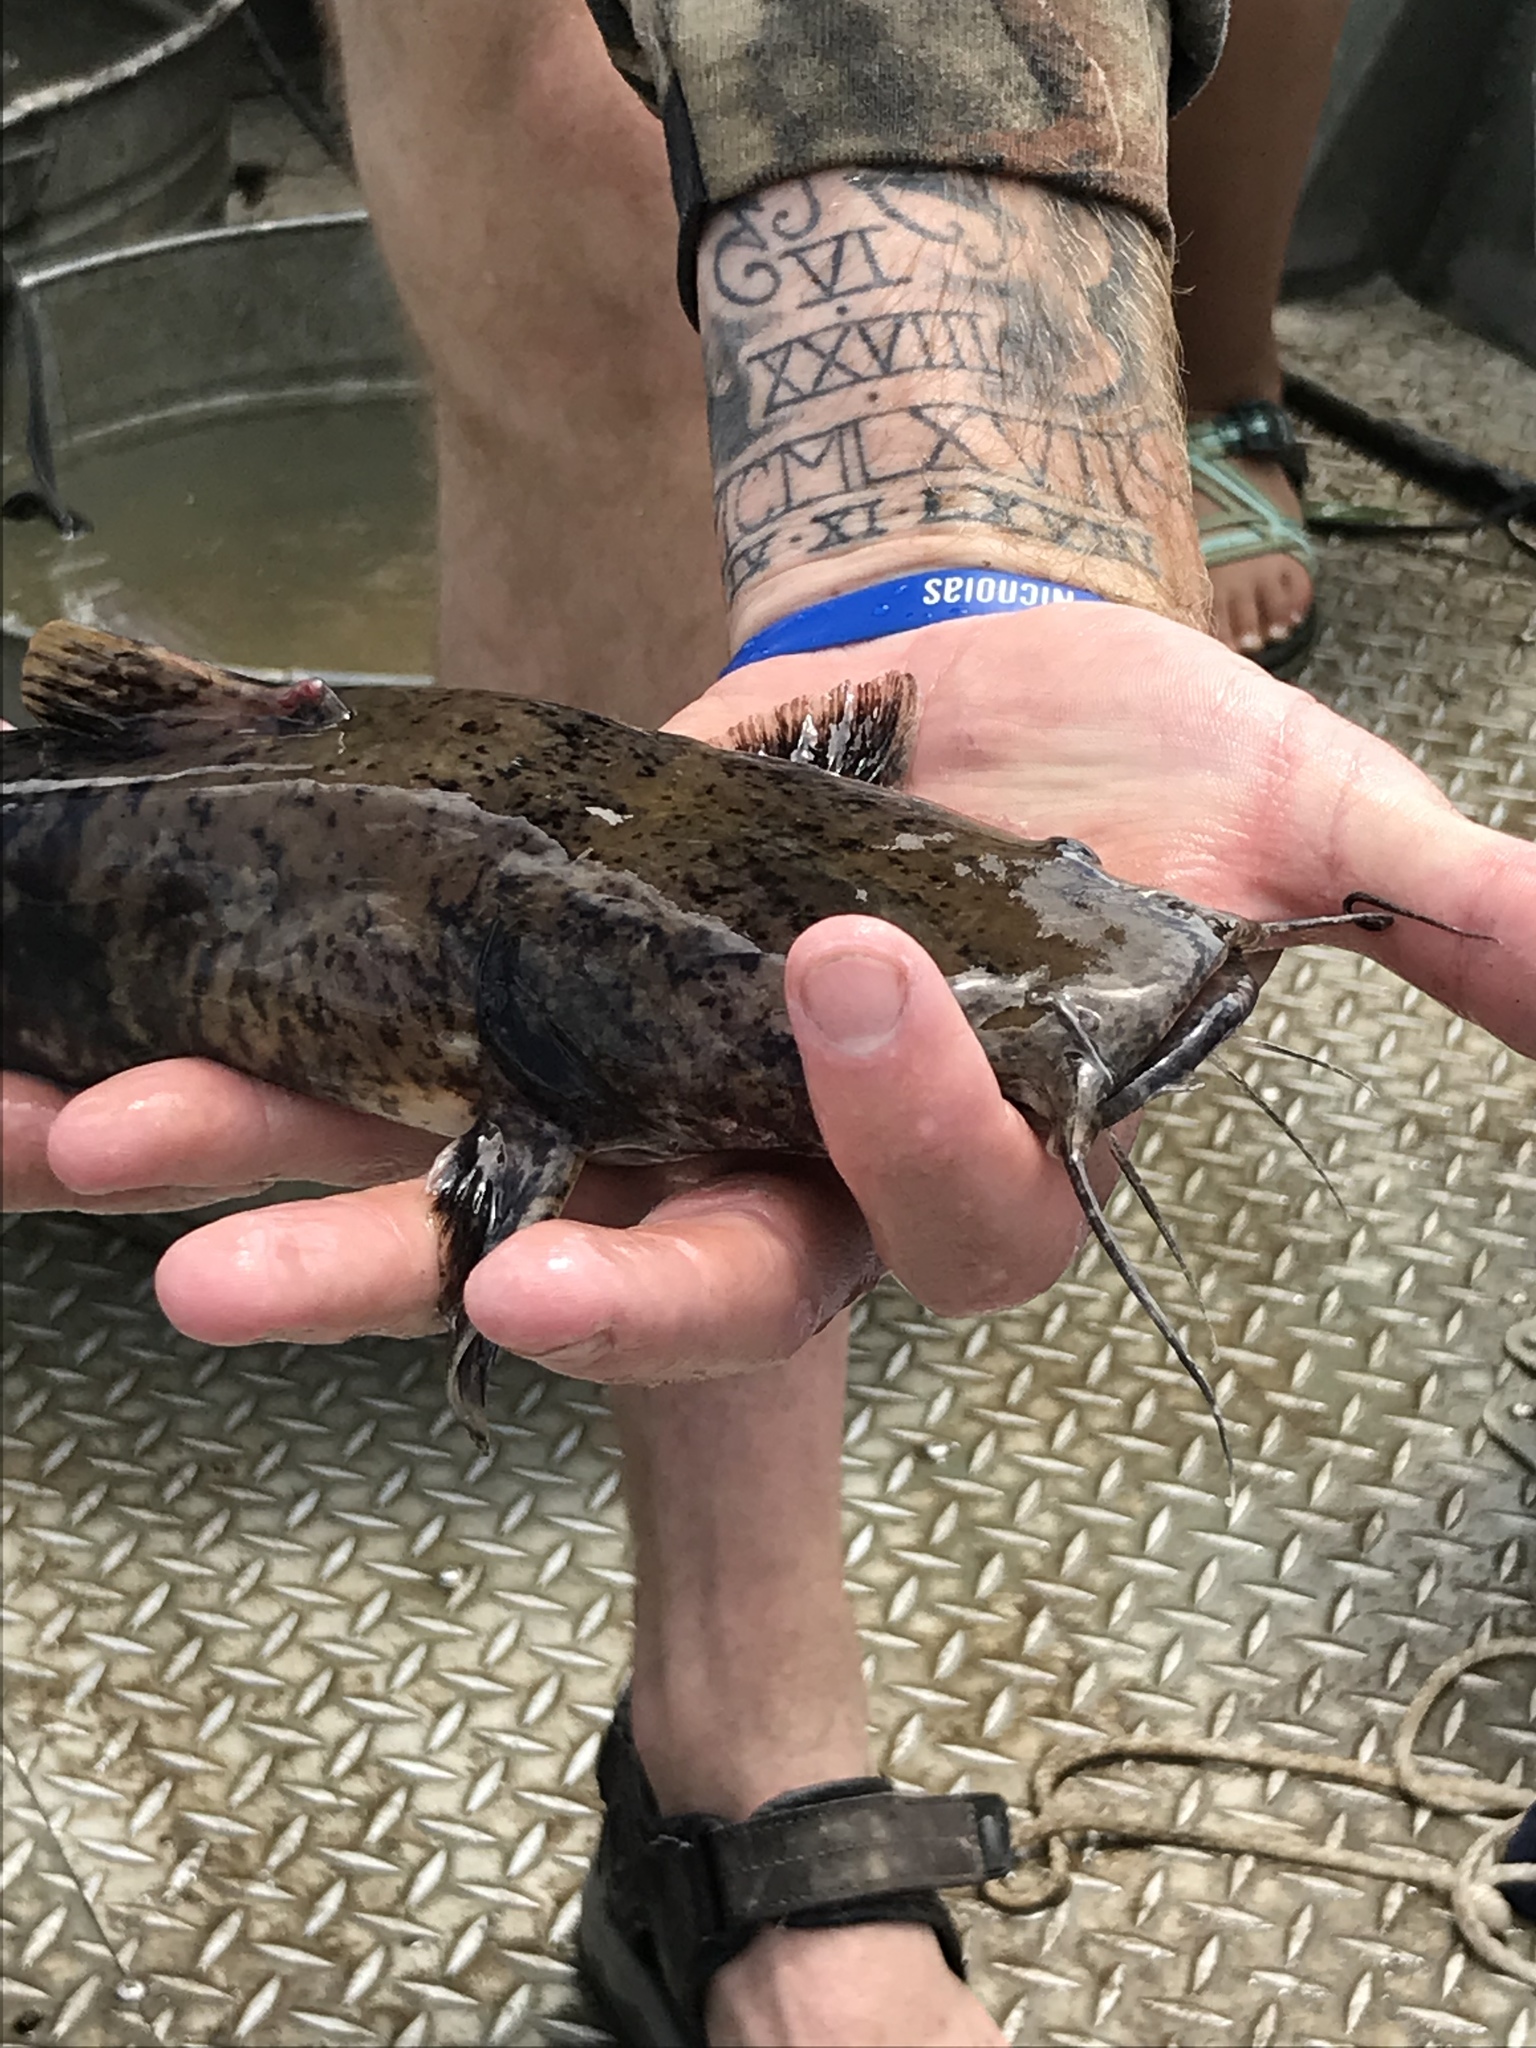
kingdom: Animalia
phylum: Chordata
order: Siluriformes
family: Ictaluridae
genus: Pylodictis
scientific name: Pylodictis olivaris
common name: Flathead catfish
